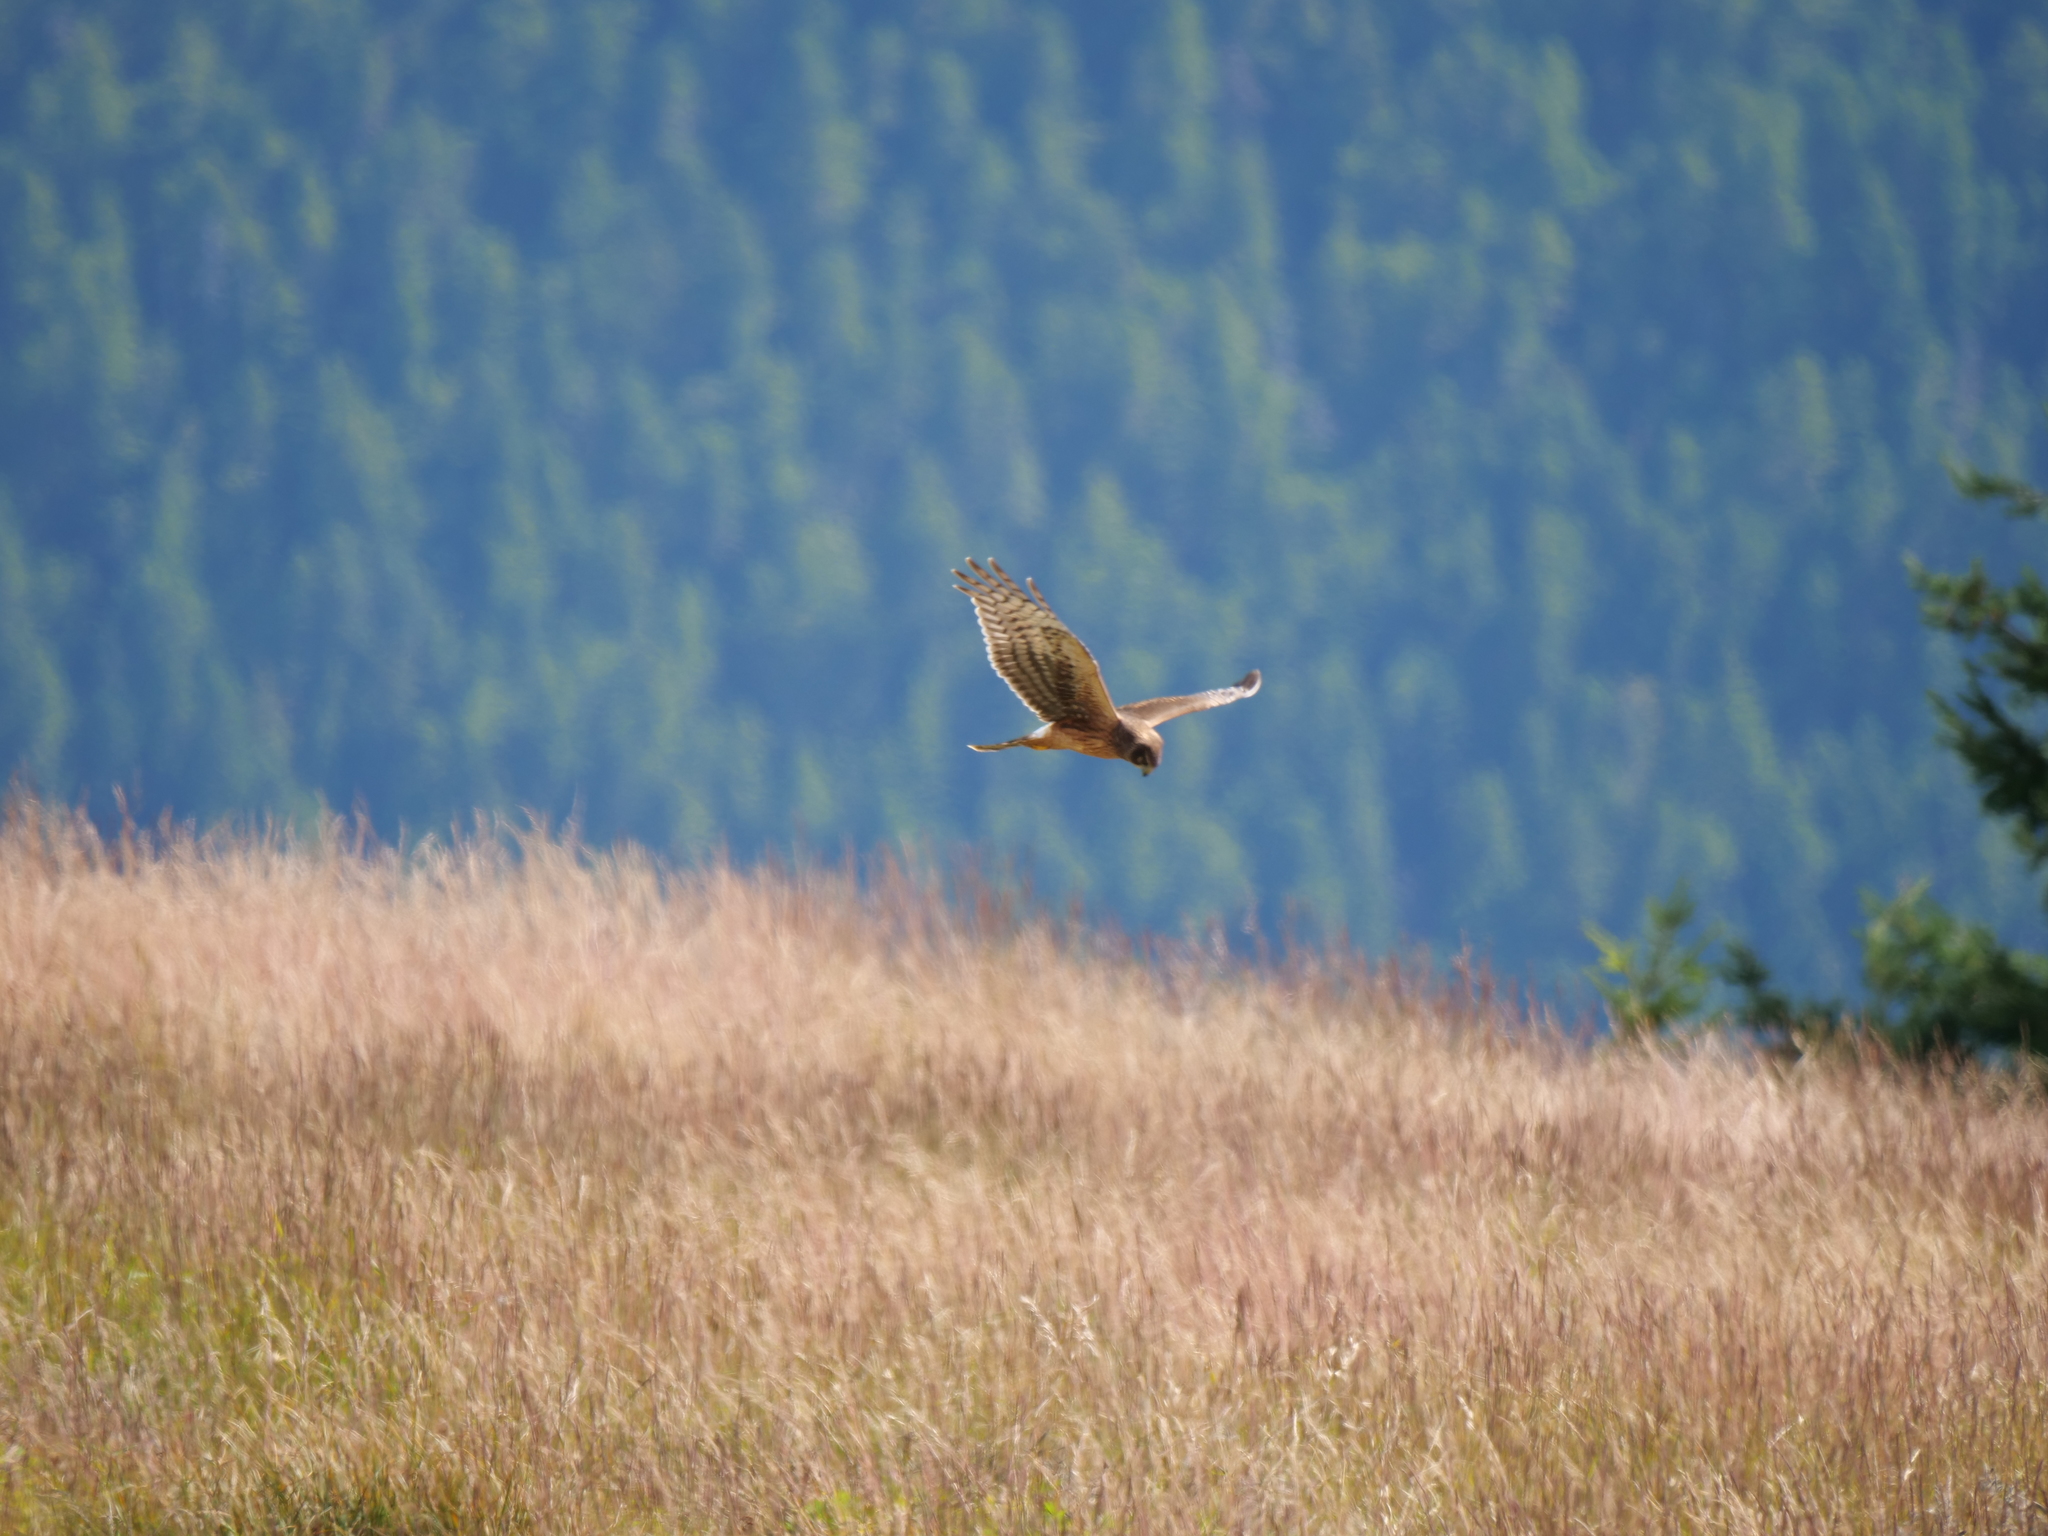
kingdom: Animalia
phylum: Chordata
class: Aves
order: Accipitriformes
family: Accipitridae
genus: Circus
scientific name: Circus cyaneus
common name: Hen harrier
